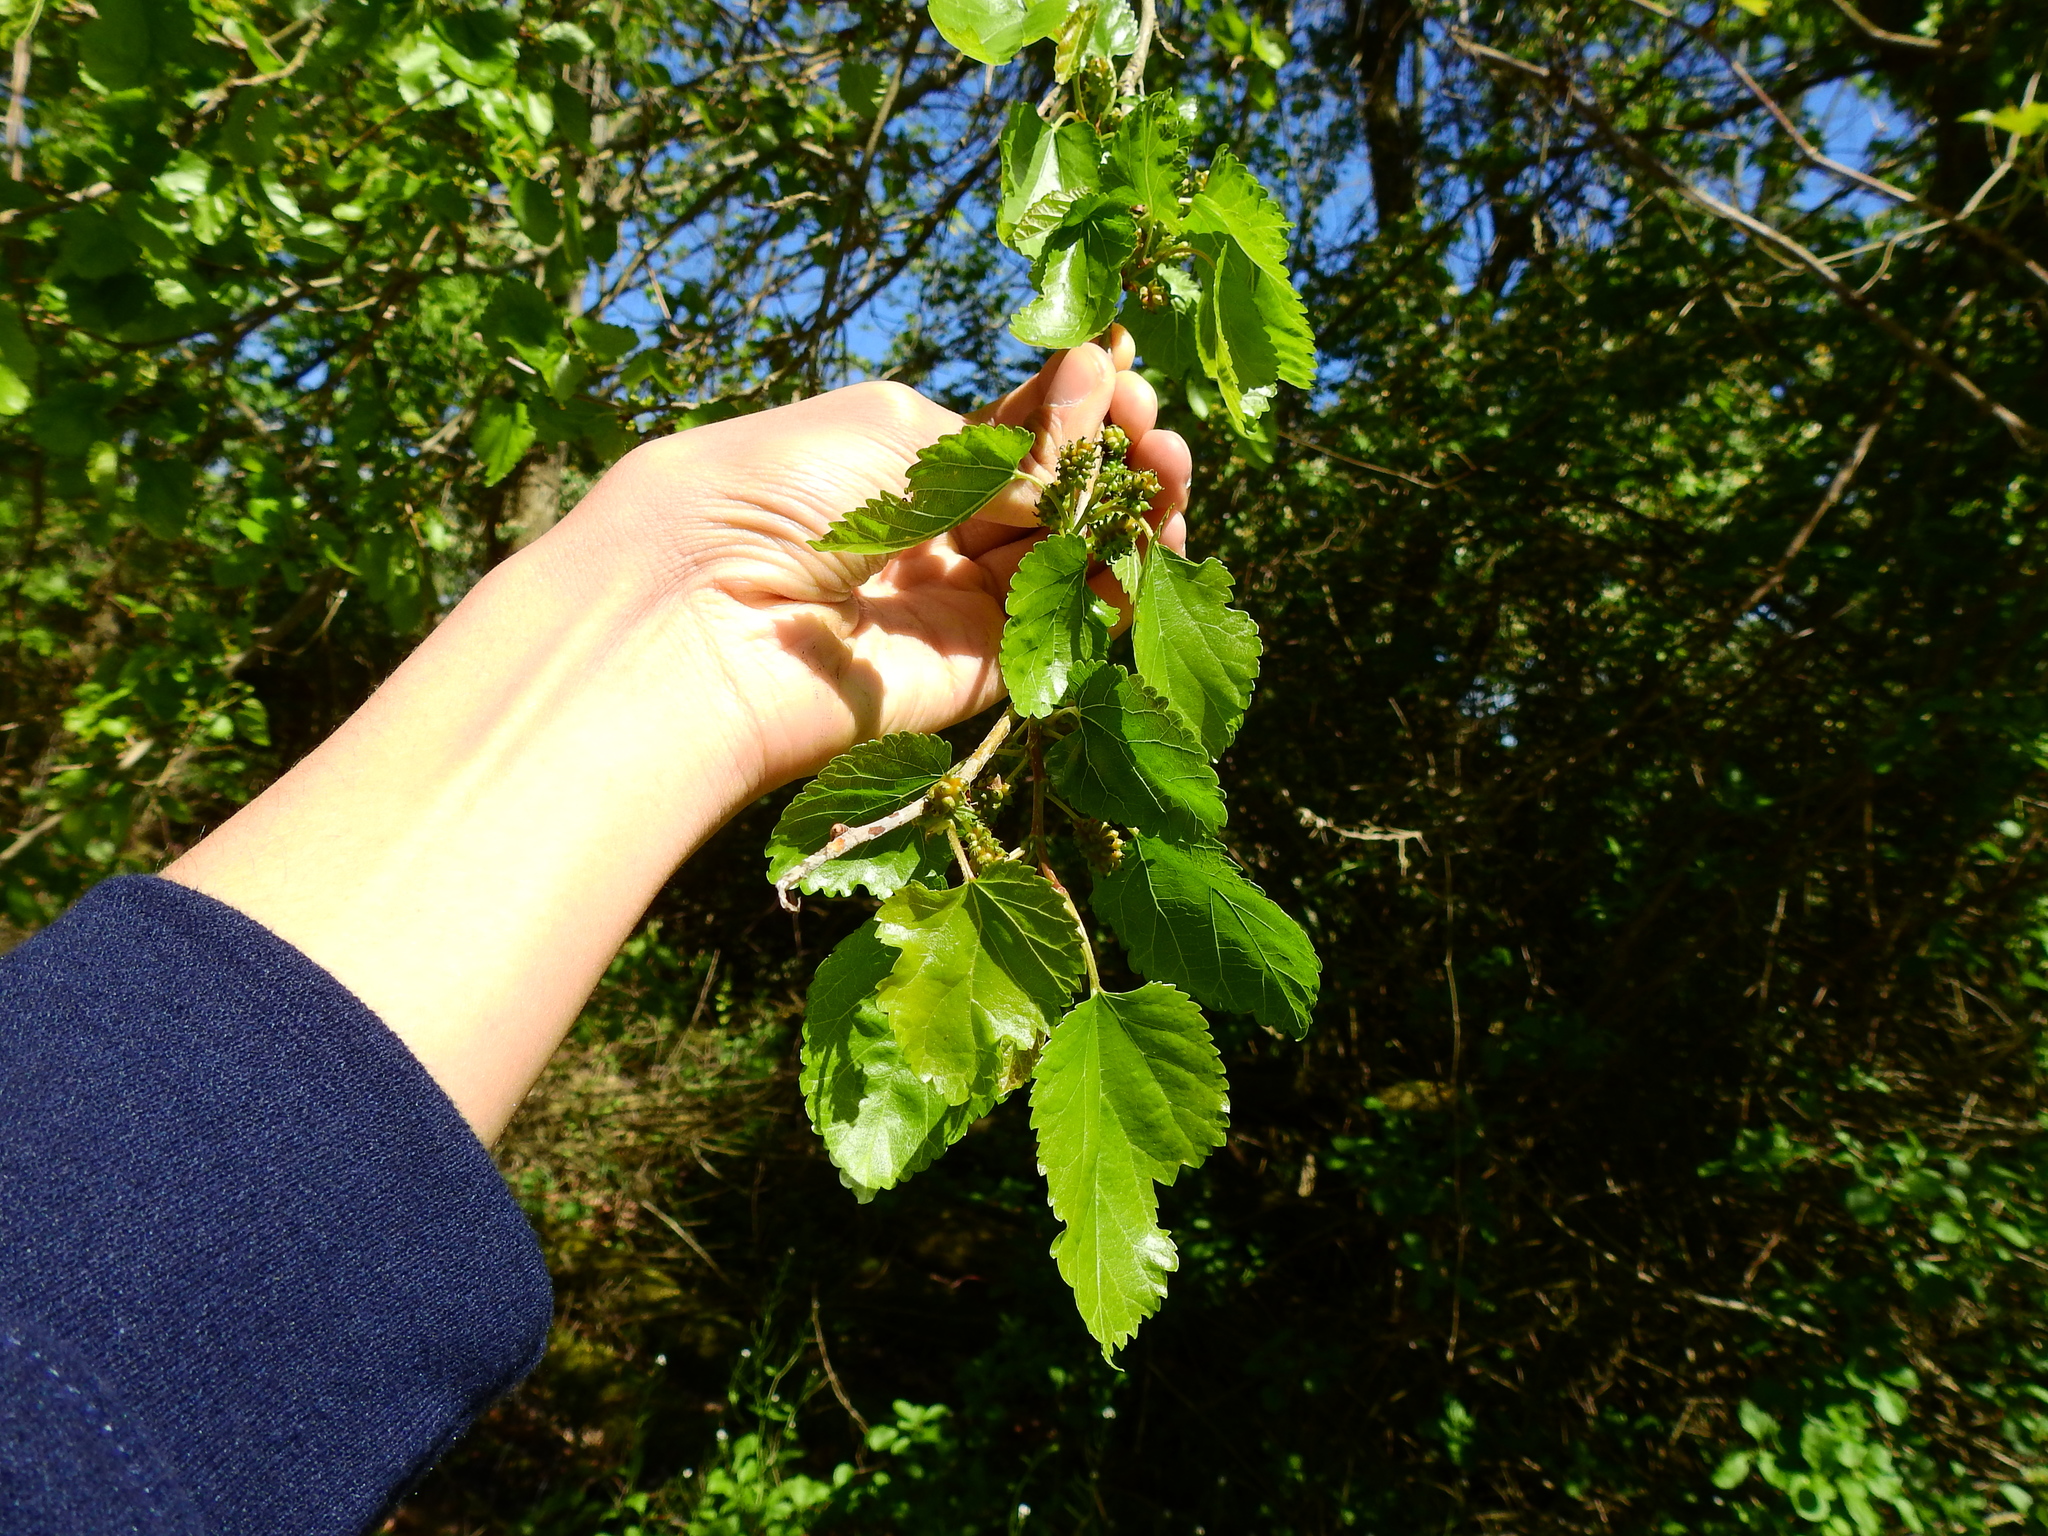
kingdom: Plantae
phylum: Tracheophyta
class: Magnoliopsida
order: Rosales
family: Moraceae
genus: Morus
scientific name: Morus alba
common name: White mulberry
